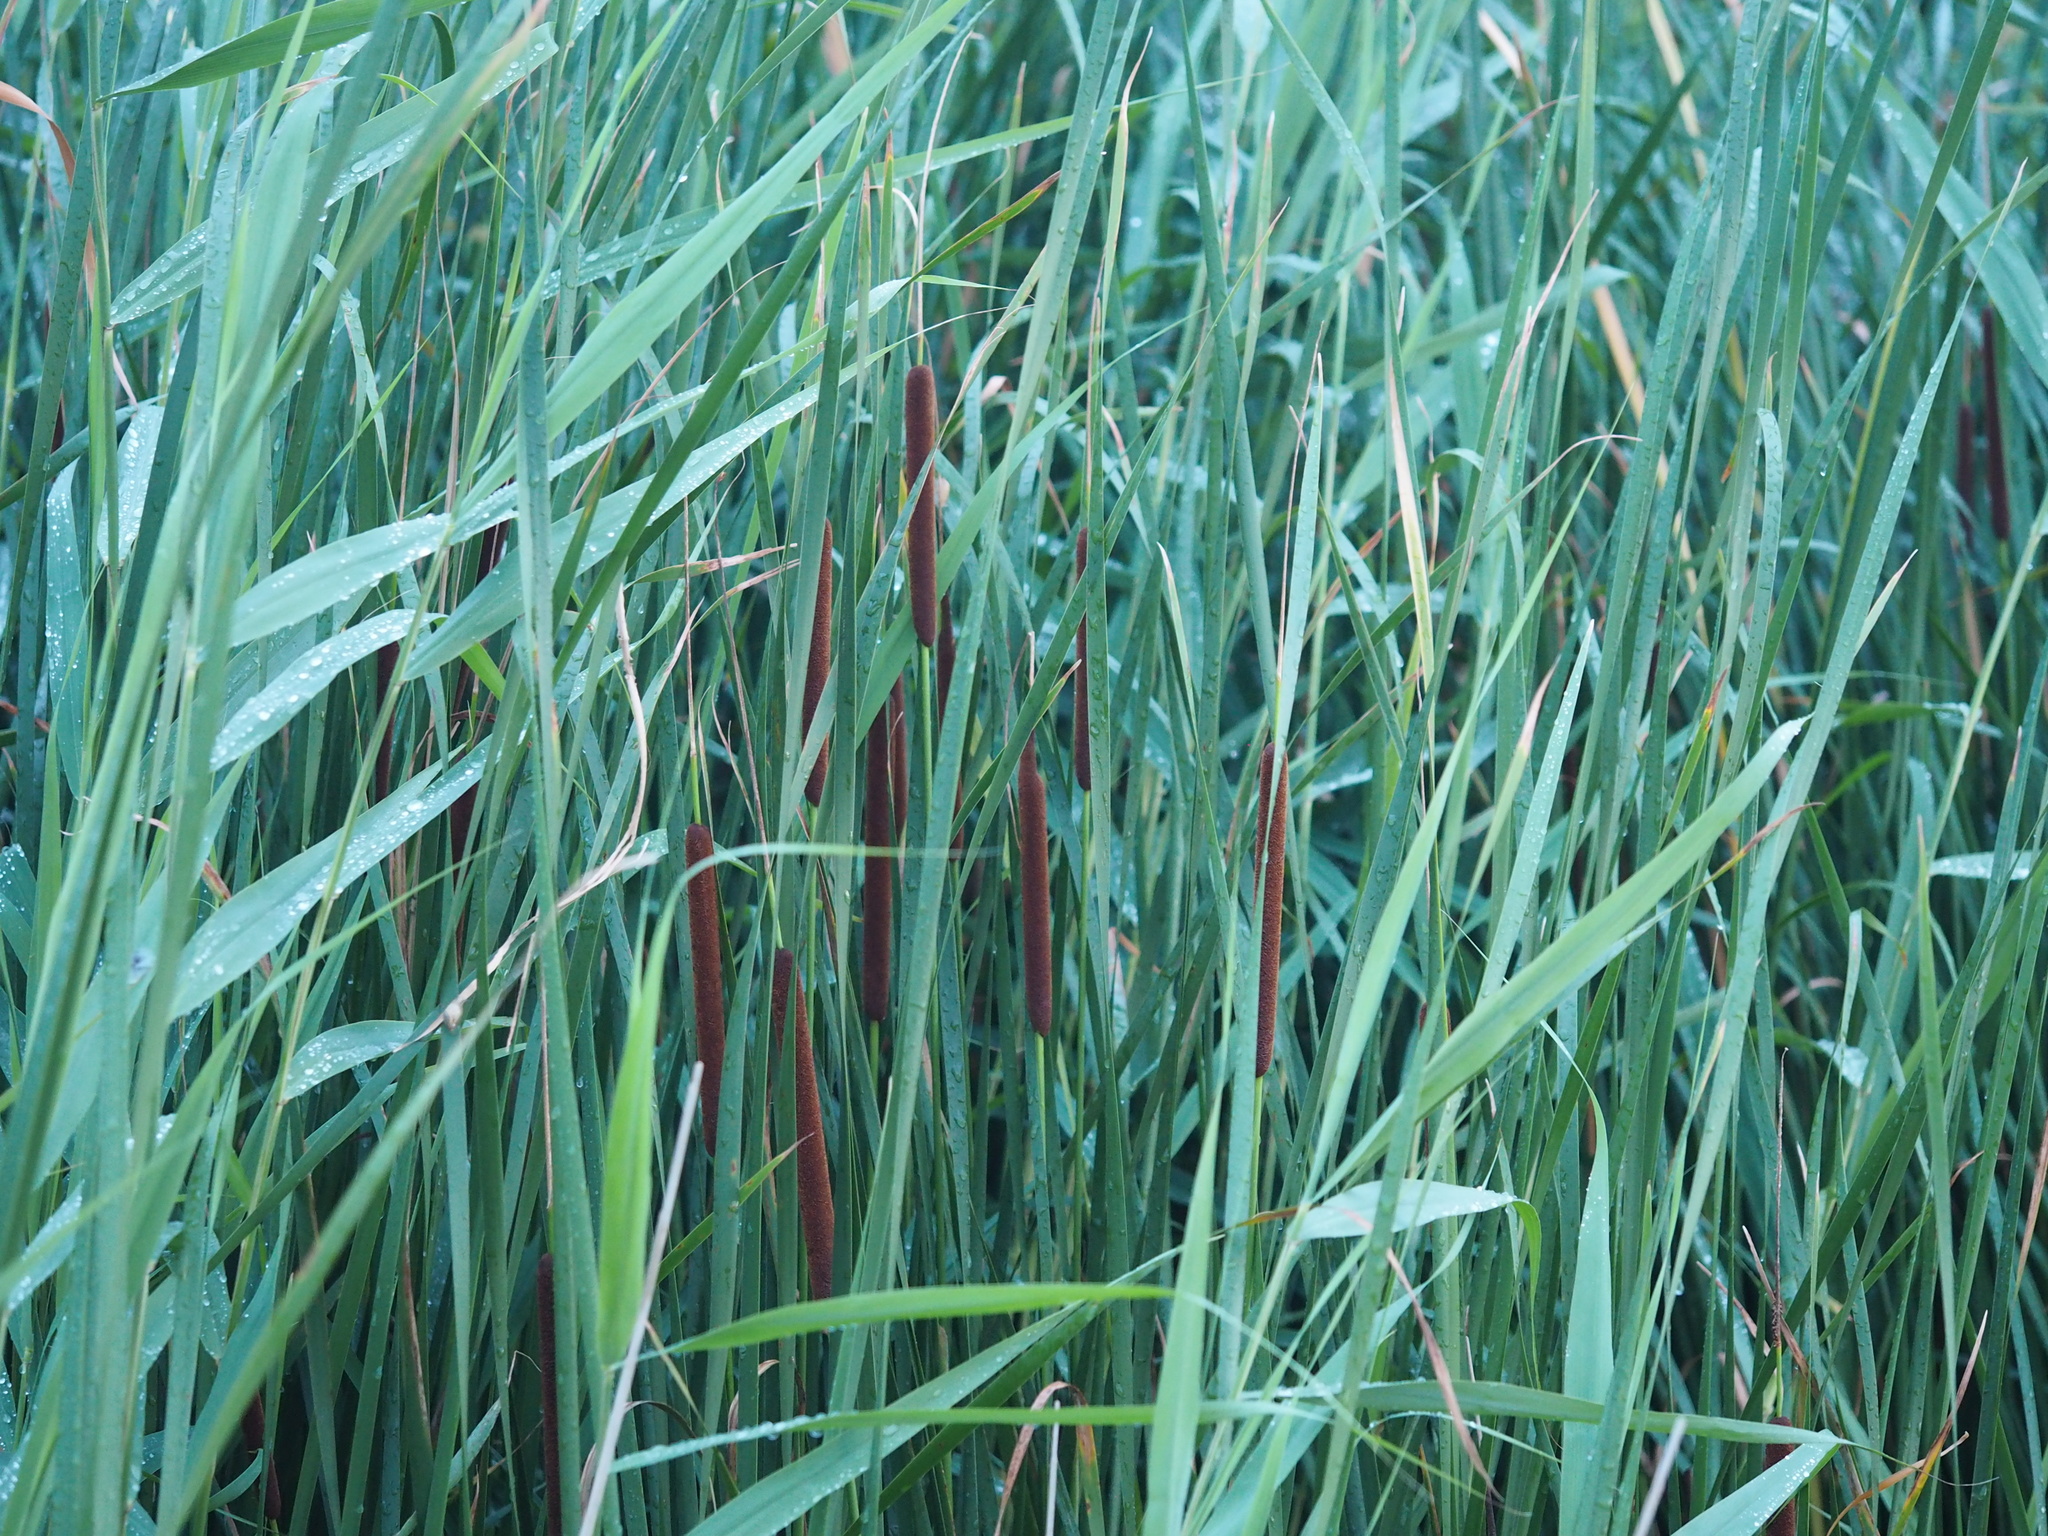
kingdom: Plantae
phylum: Tracheophyta
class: Liliopsida
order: Poales
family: Typhaceae
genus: Typha
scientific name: Typha angustifolia
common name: Lesser bulrush
